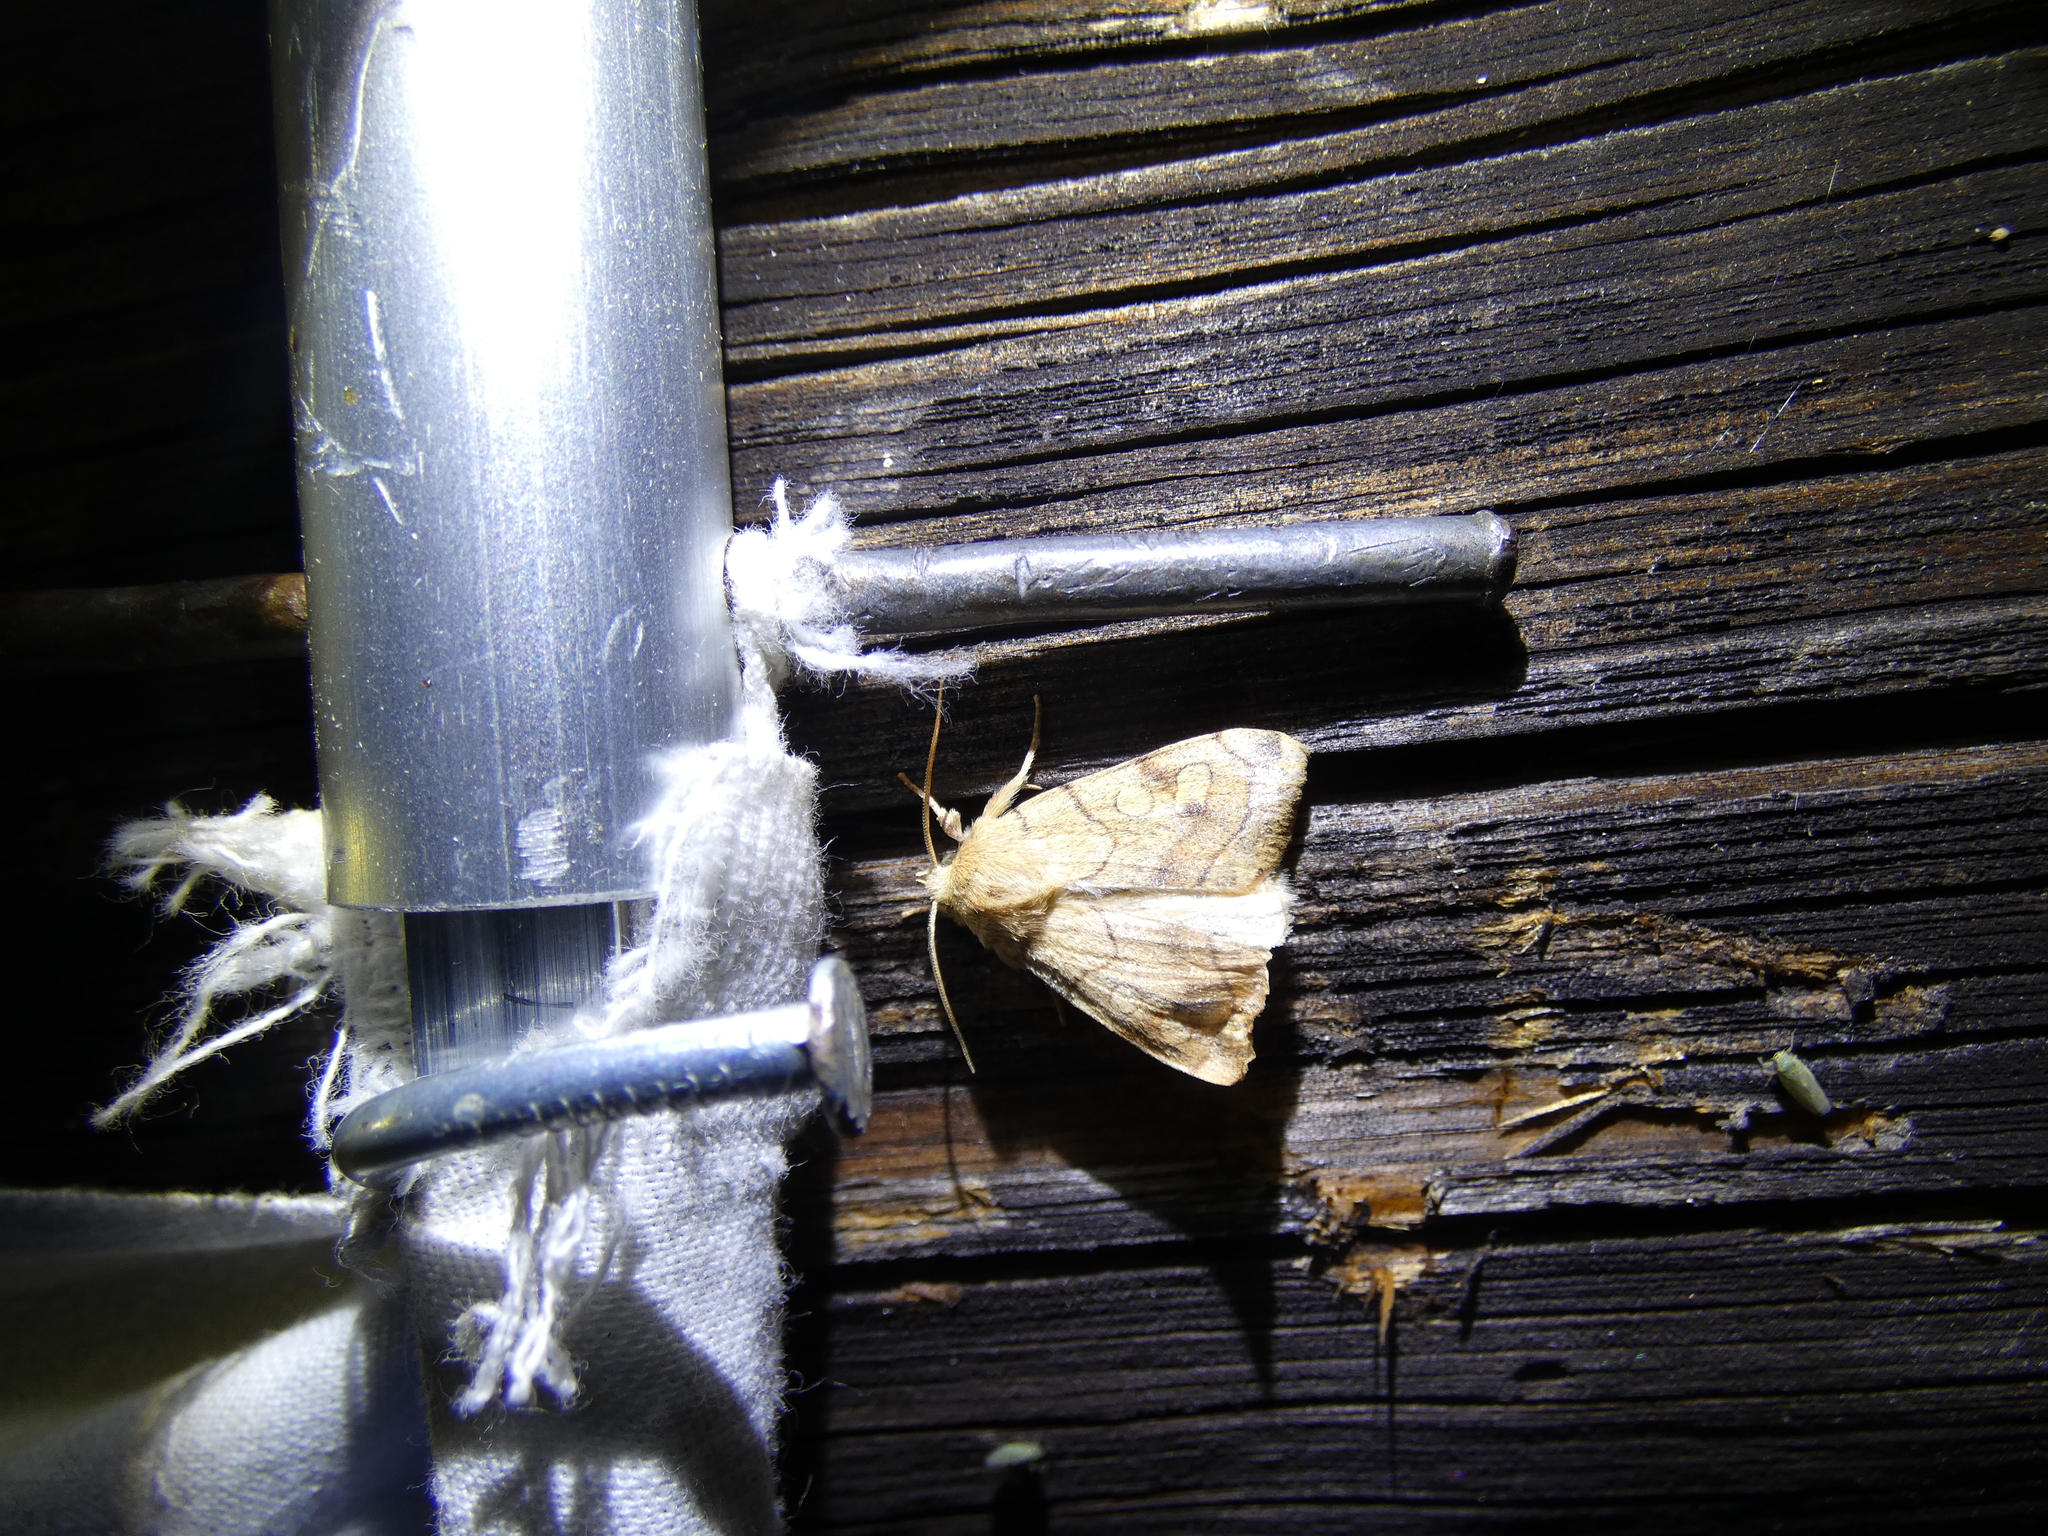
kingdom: Animalia
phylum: Arthropoda
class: Insecta
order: Lepidoptera
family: Noctuidae
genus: Enargia
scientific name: Enargia paleacea
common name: Angle-striped sallow
